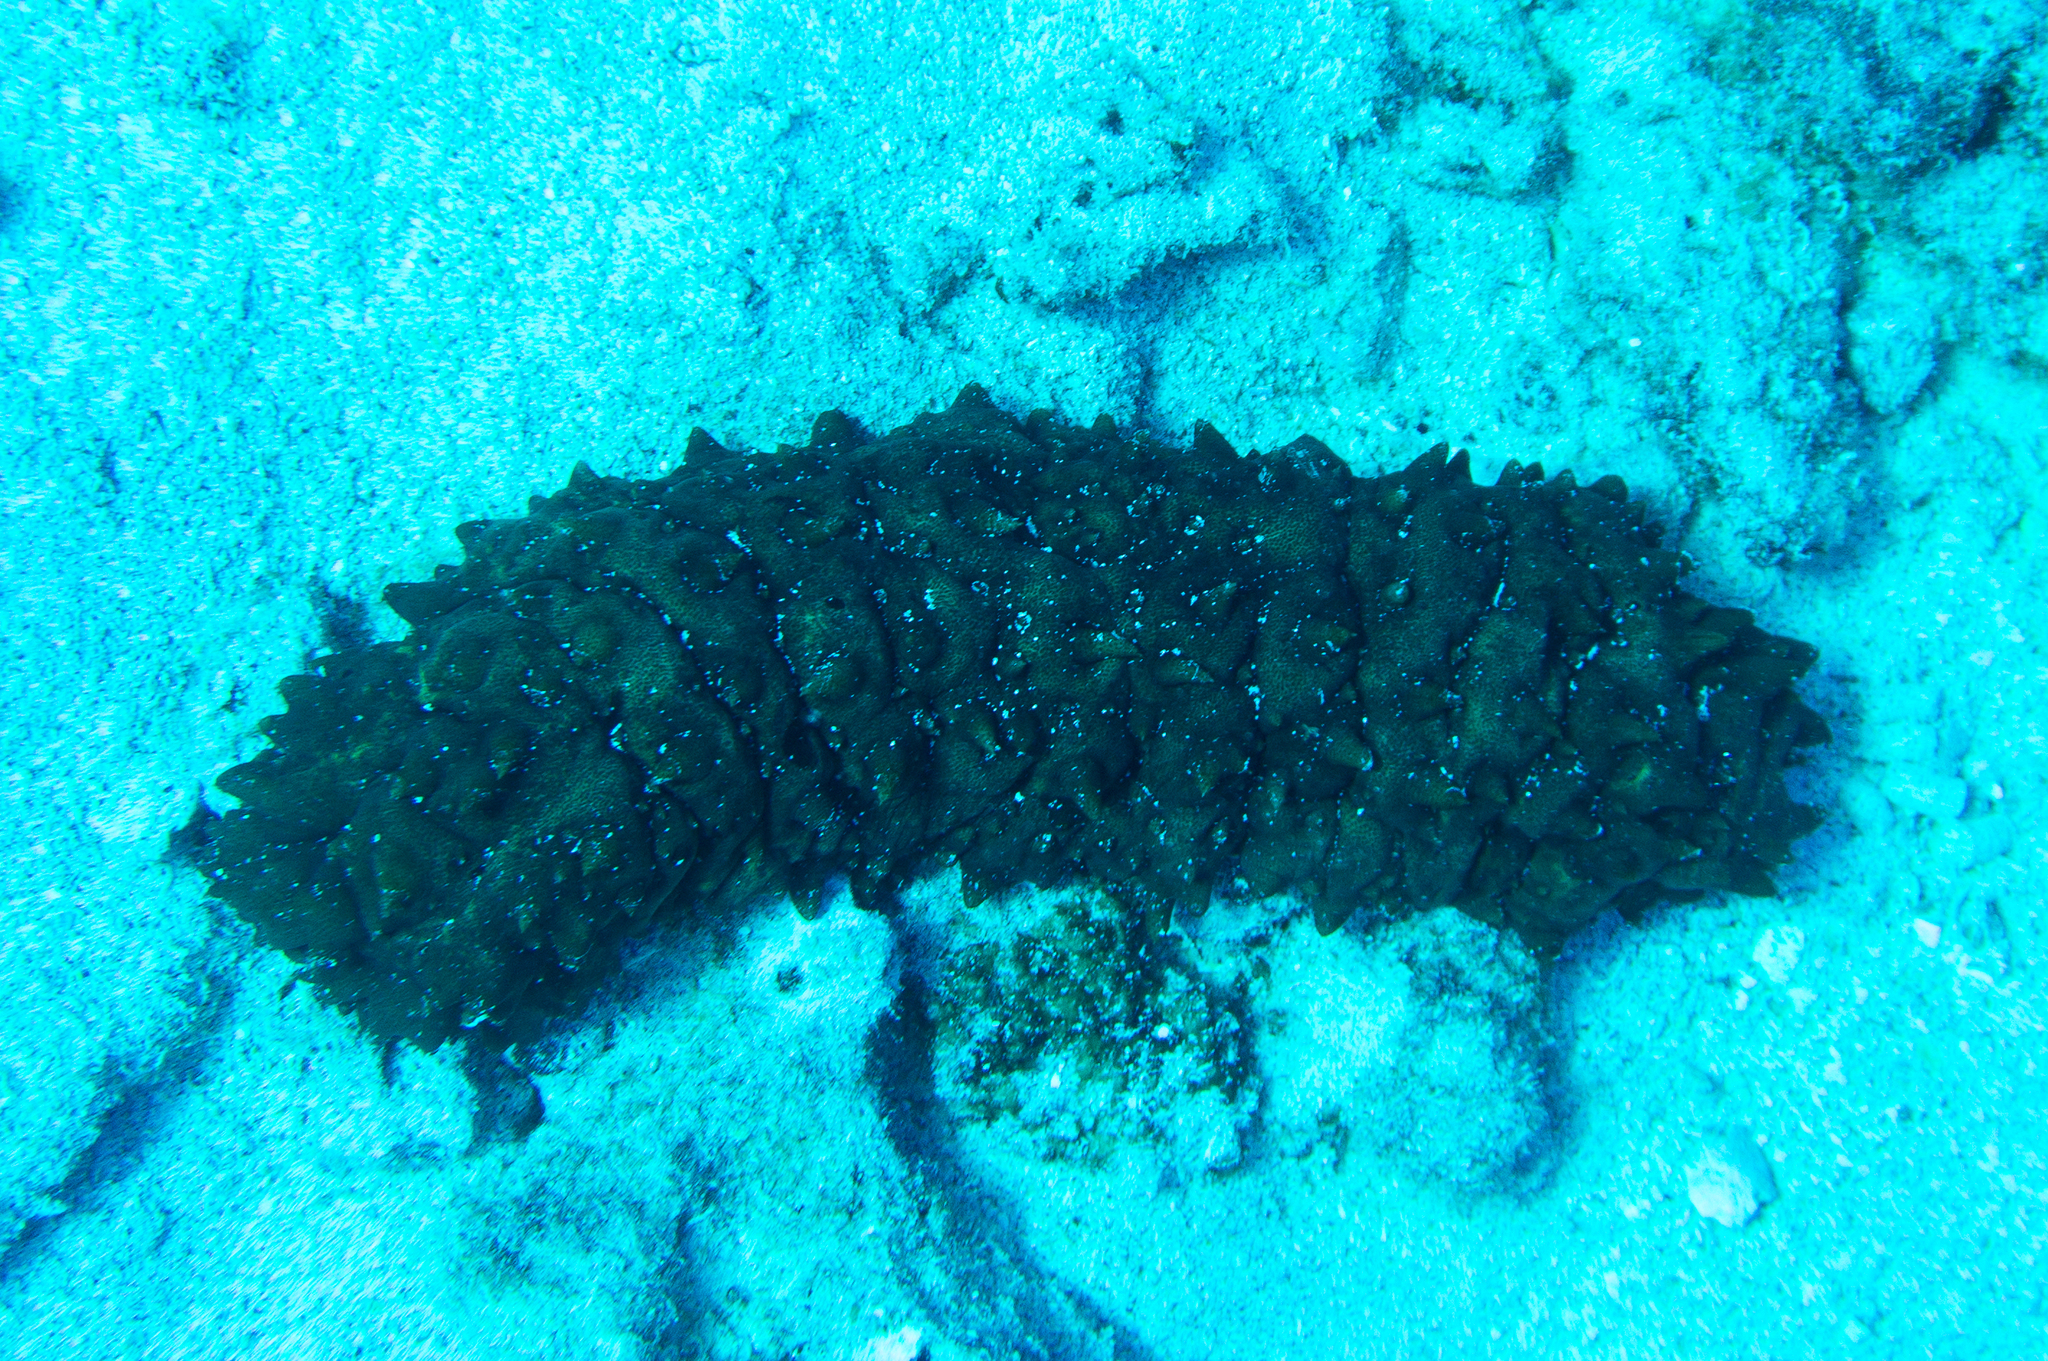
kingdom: Animalia
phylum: Echinodermata
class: Holothuroidea
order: Synallactida
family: Stichopodidae
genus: Stichopus
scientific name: Stichopus pseudohorrens
